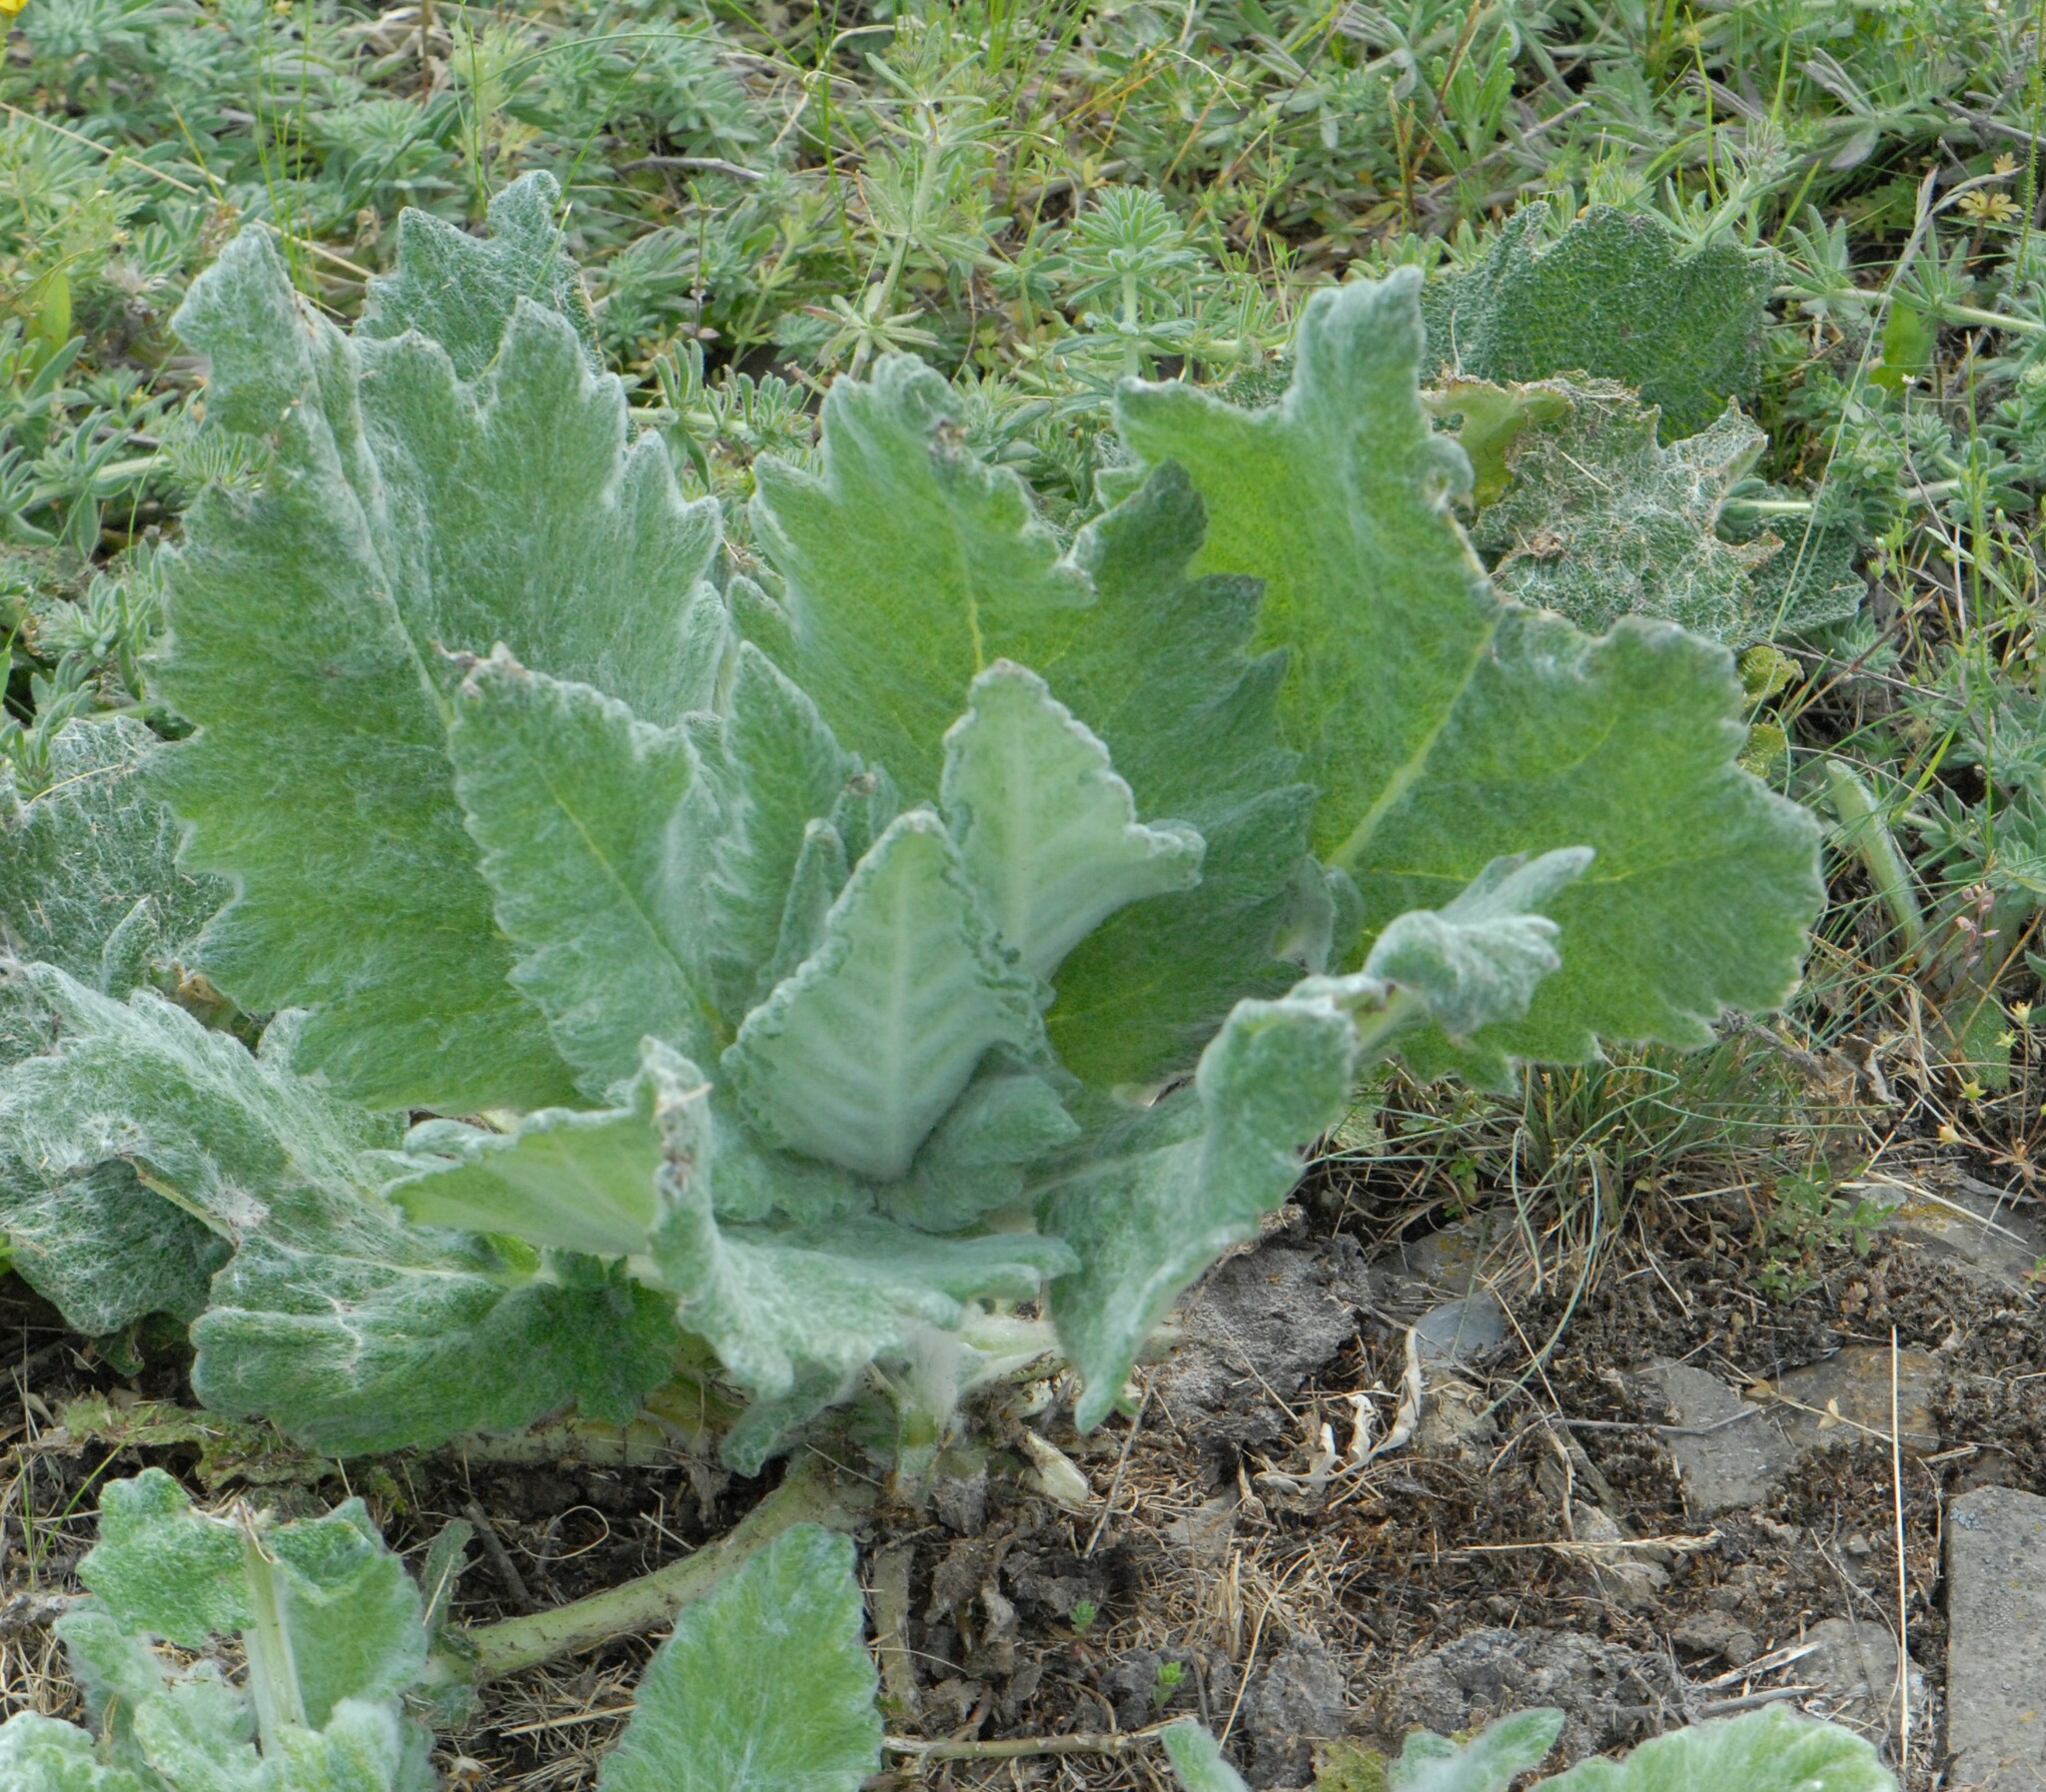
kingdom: Plantae
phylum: Tracheophyta
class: Magnoliopsida
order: Lamiales
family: Lamiaceae
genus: Salvia
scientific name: Salvia aethiopis
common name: Mediterranean sage
